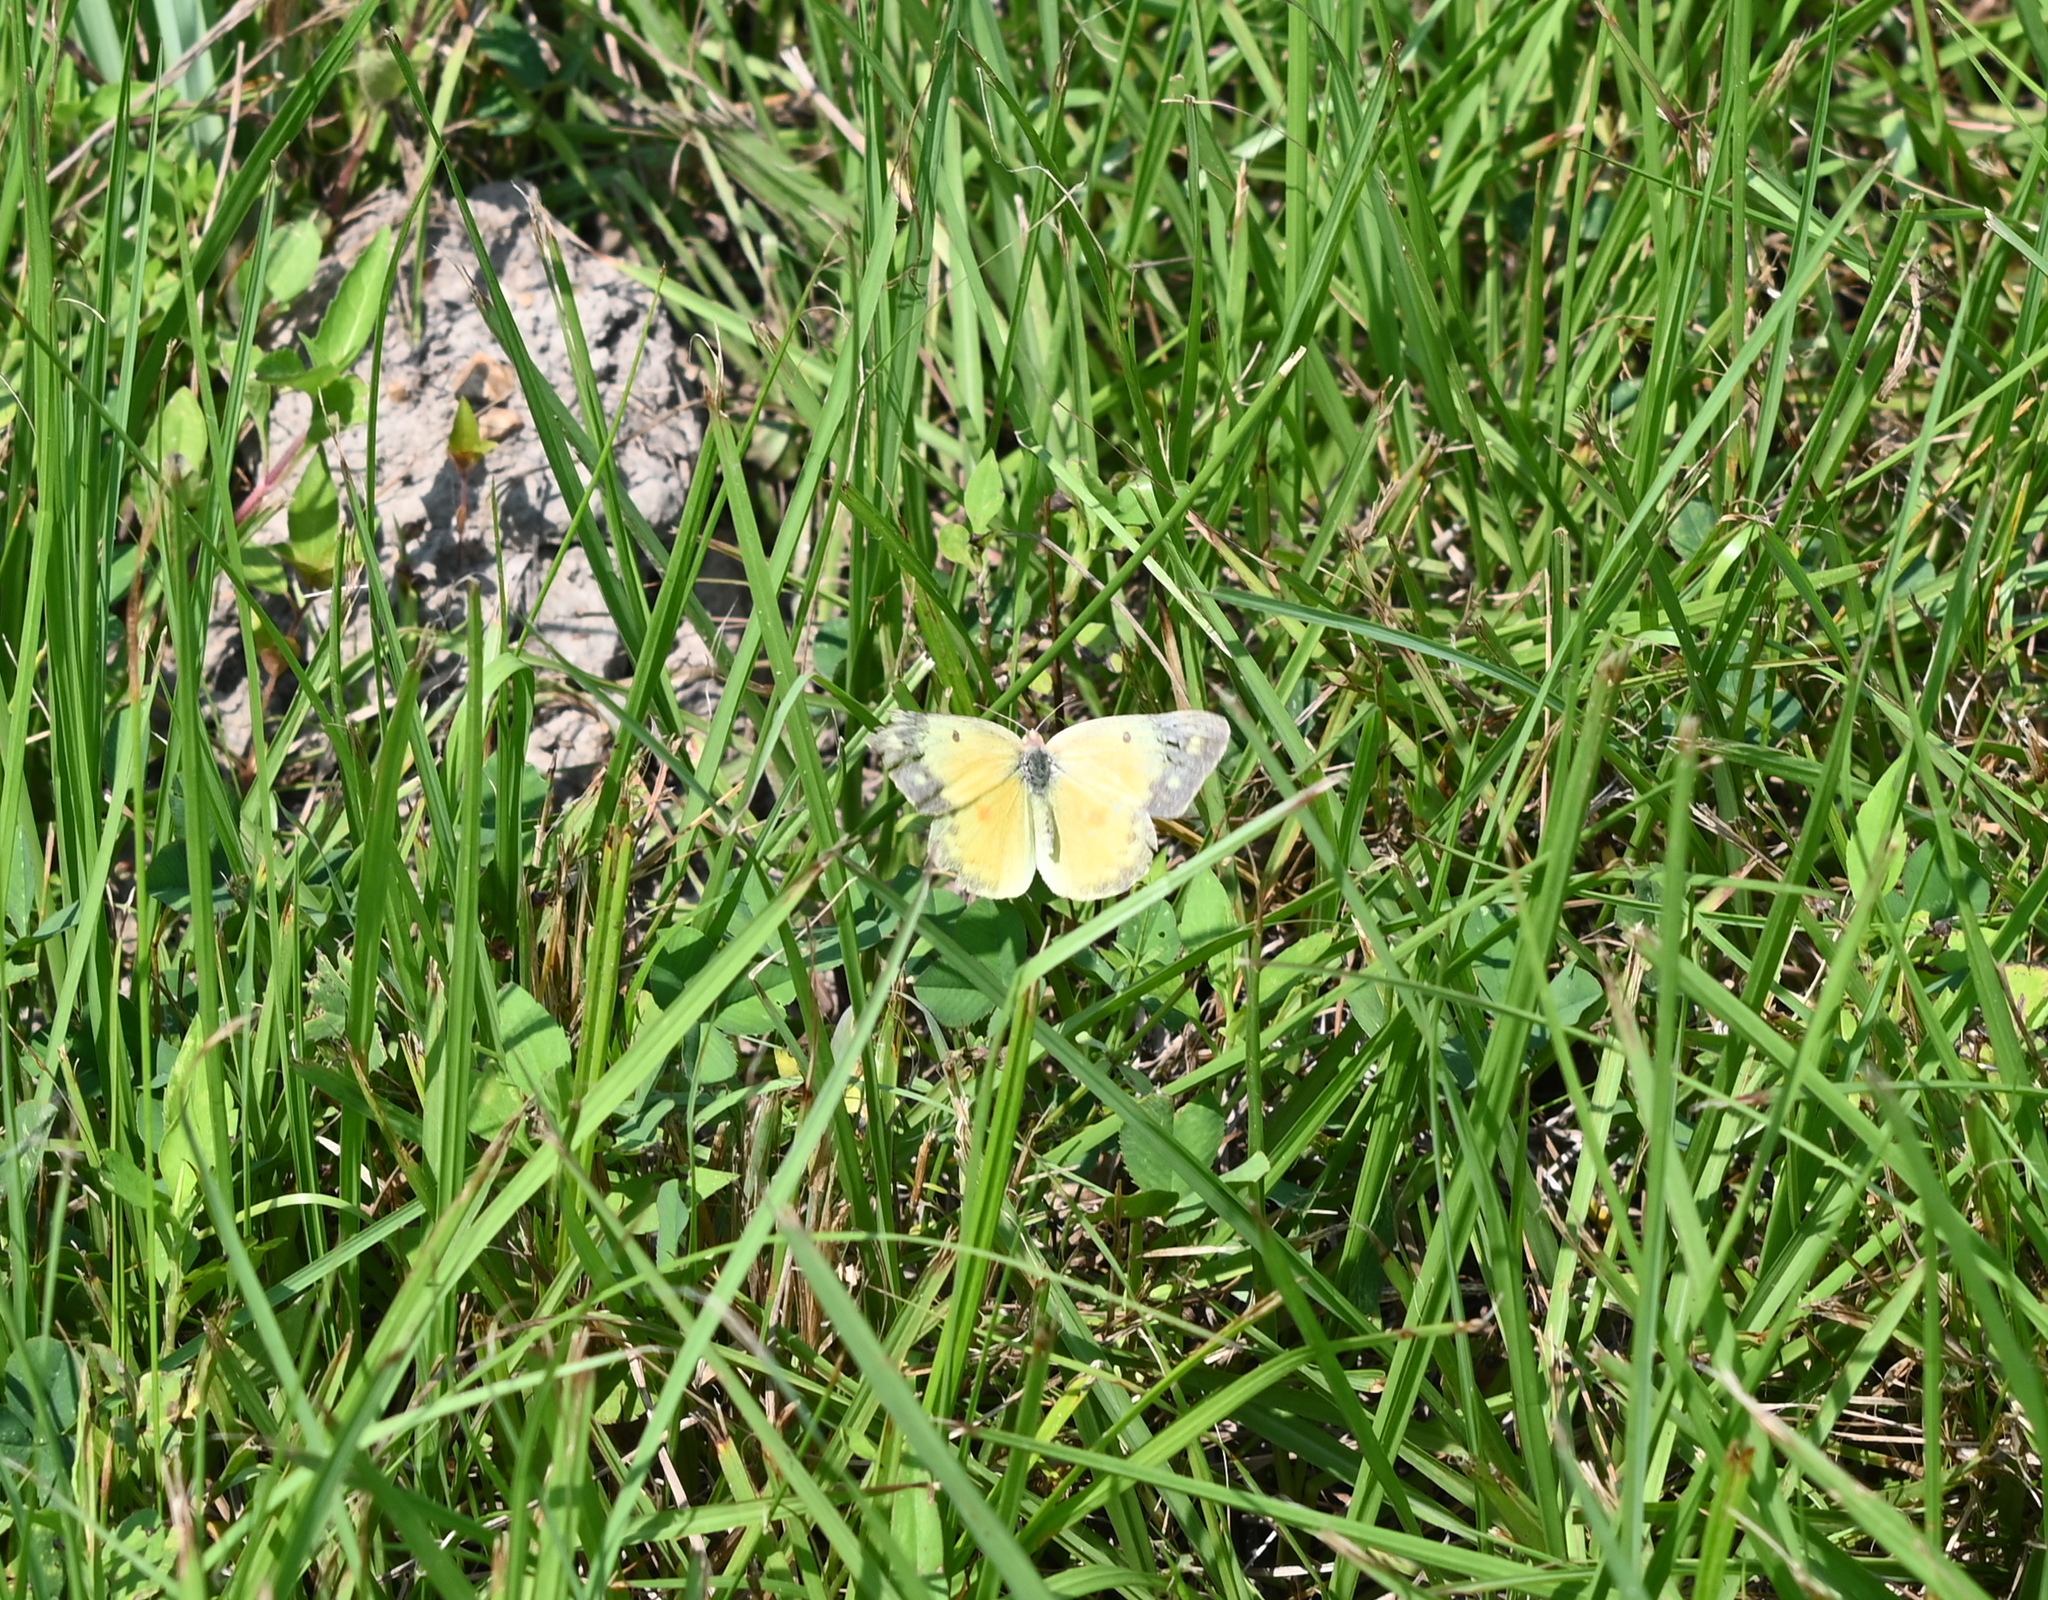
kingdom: Animalia
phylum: Arthropoda
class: Insecta
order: Lepidoptera
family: Pieridae
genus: Colias
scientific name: Colias eurytheme
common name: Alfalfa butterfly
